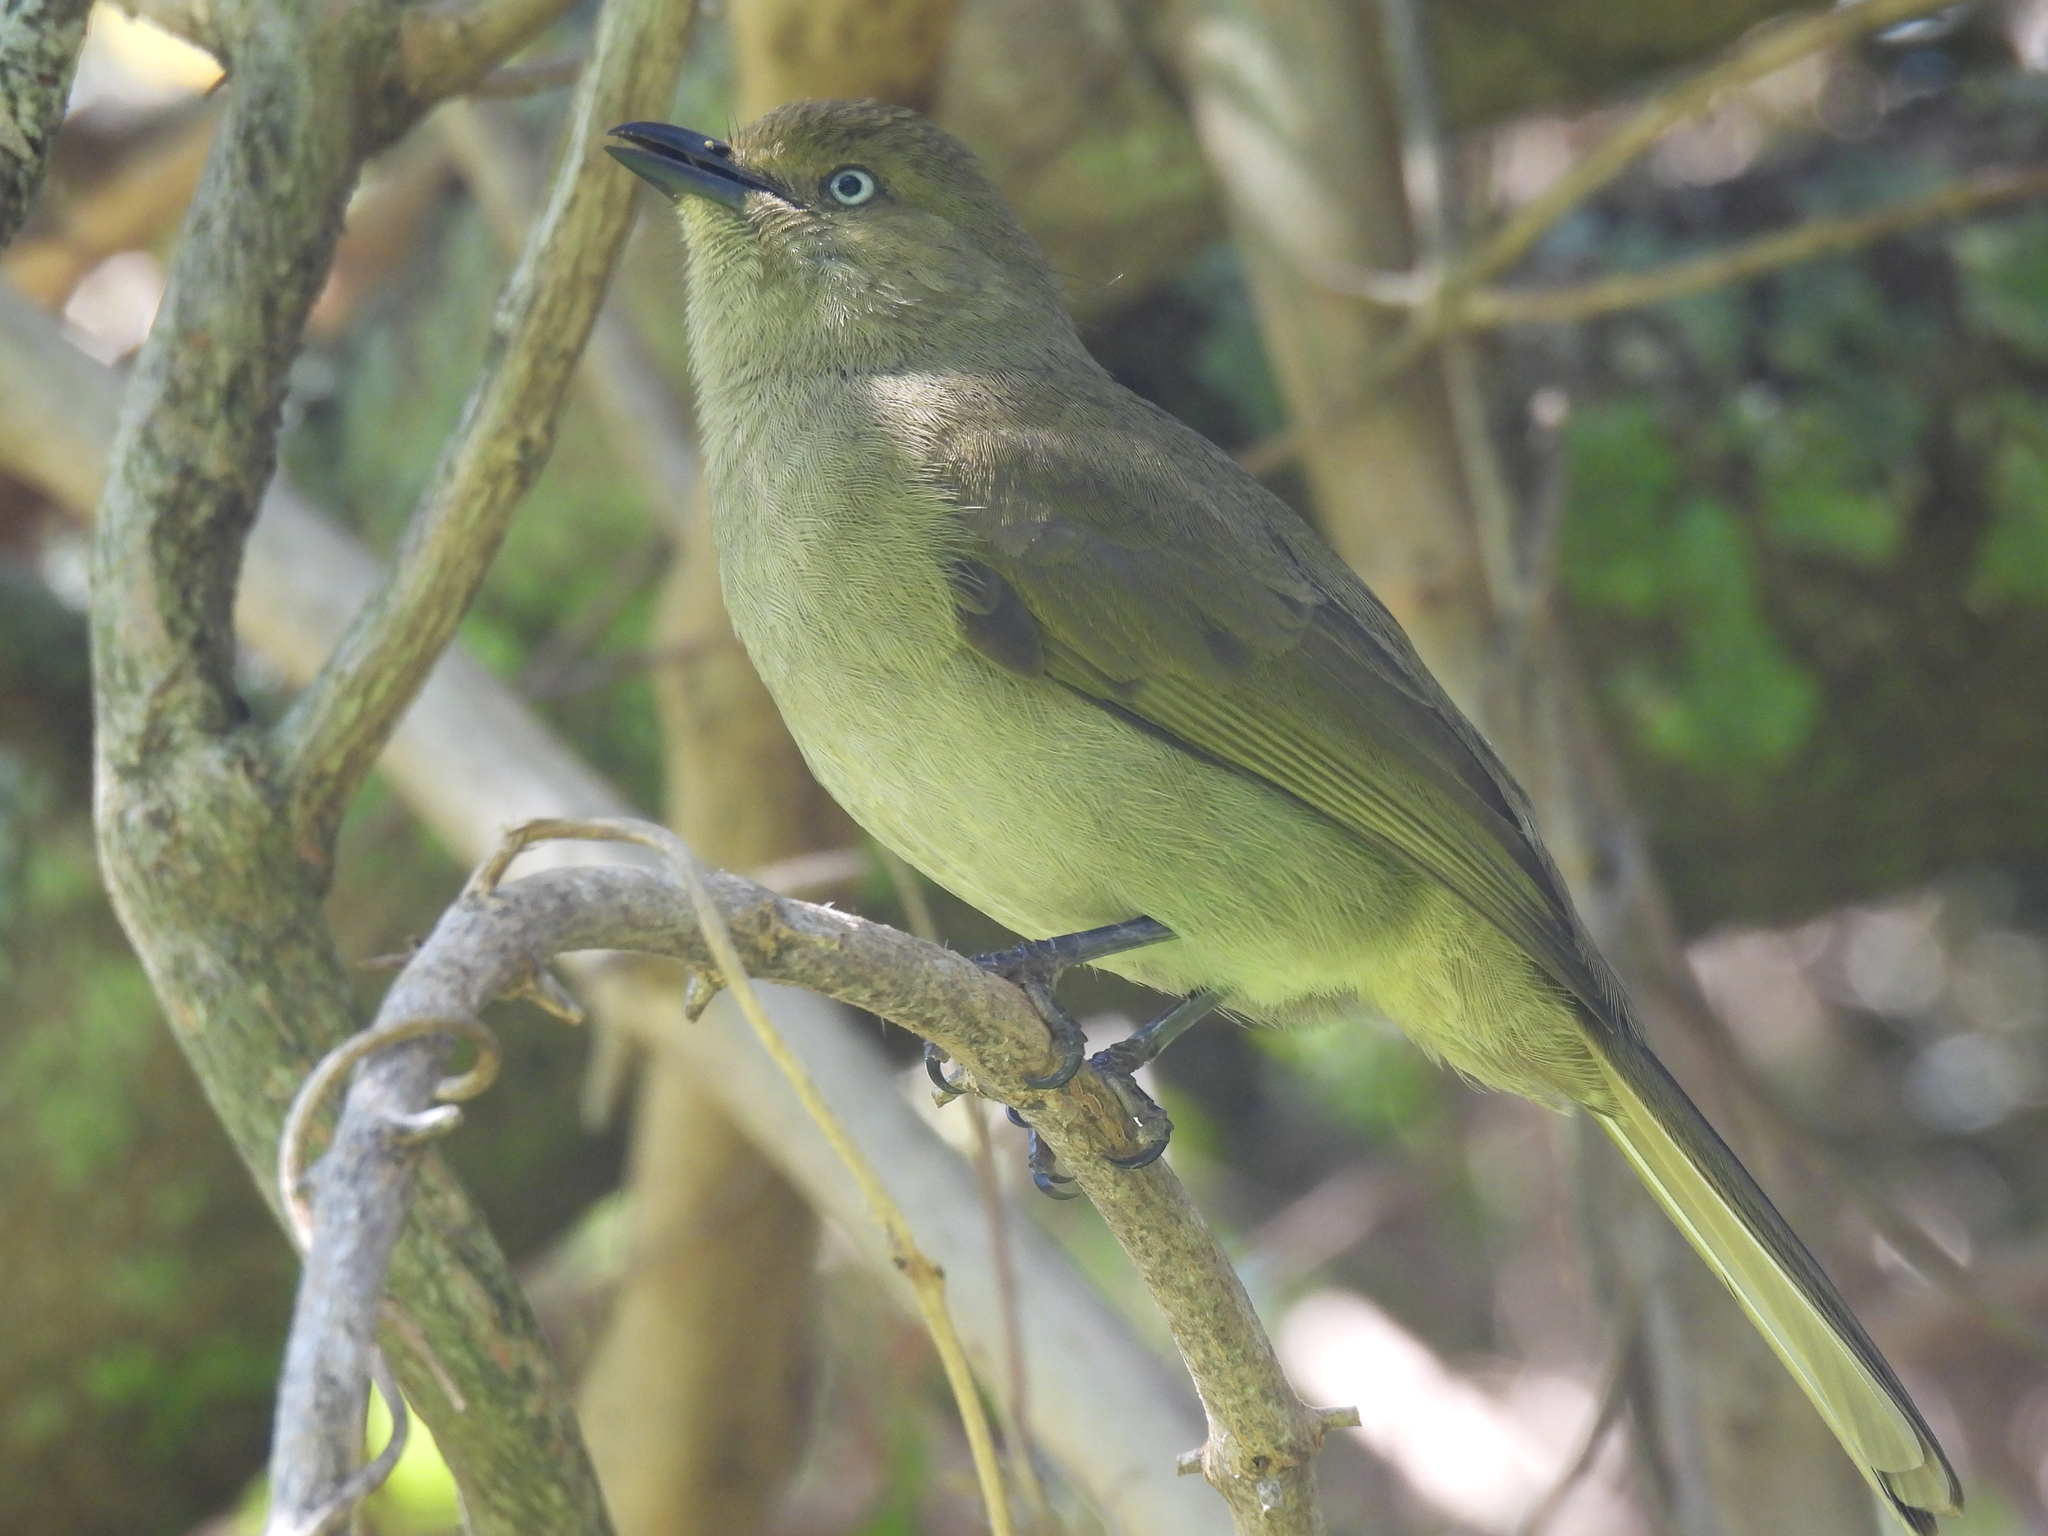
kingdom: Animalia
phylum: Chordata
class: Aves
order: Passeriformes
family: Pycnonotidae
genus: Andropadus
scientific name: Andropadus importunus
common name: Sombre greenbul
